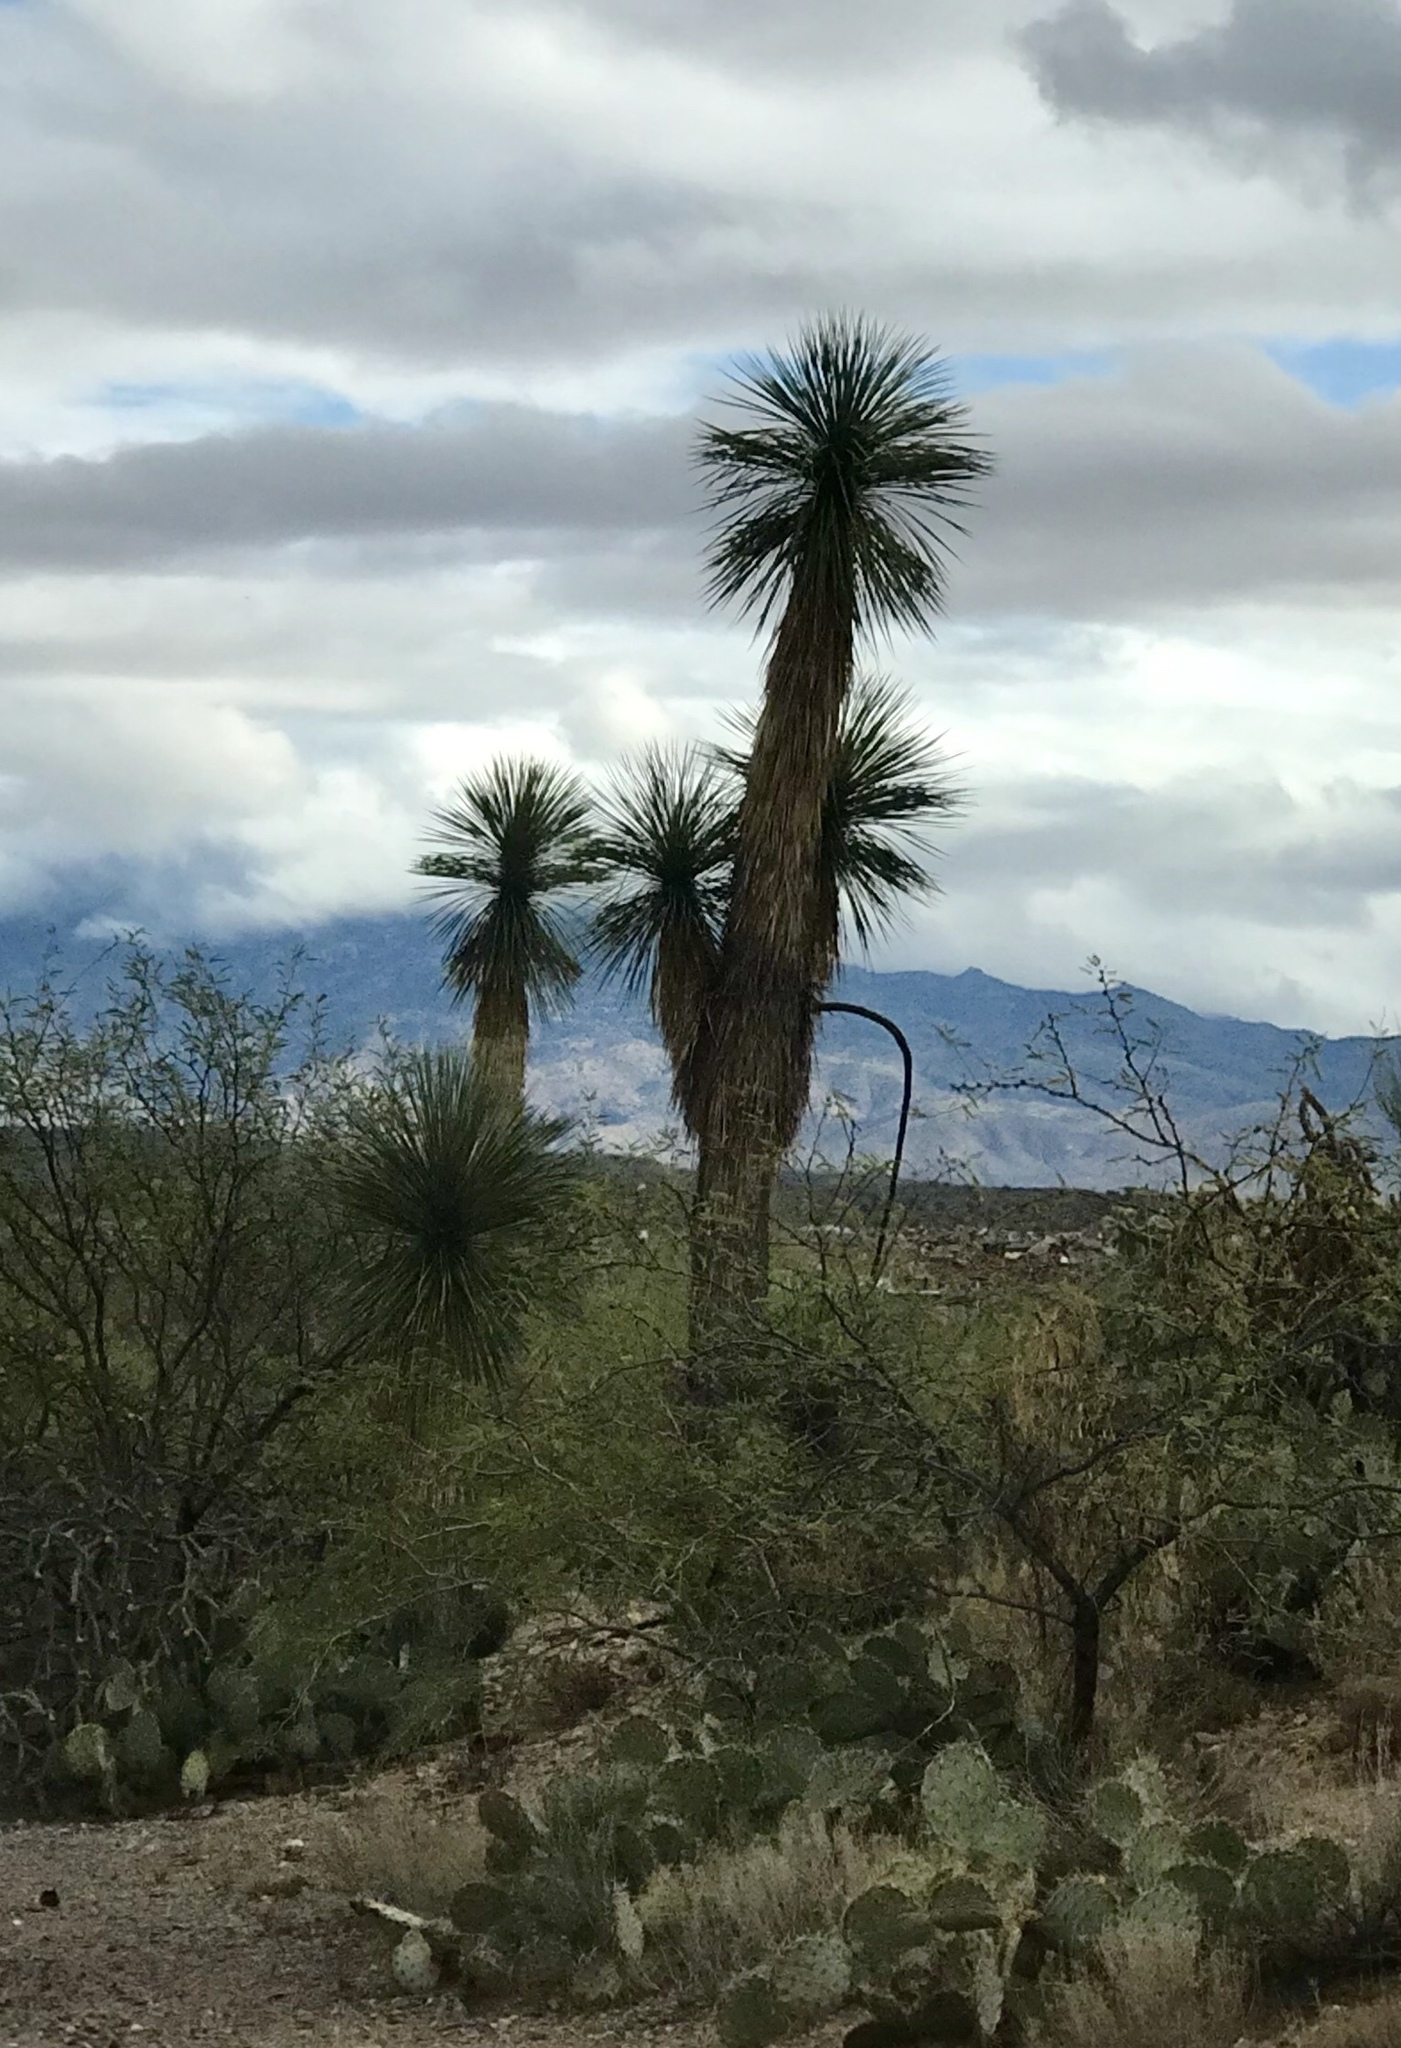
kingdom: Plantae
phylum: Tracheophyta
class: Liliopsida
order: Asparagales
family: Asparagaceae
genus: Yucca
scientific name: Yucca elata
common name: Palmella
